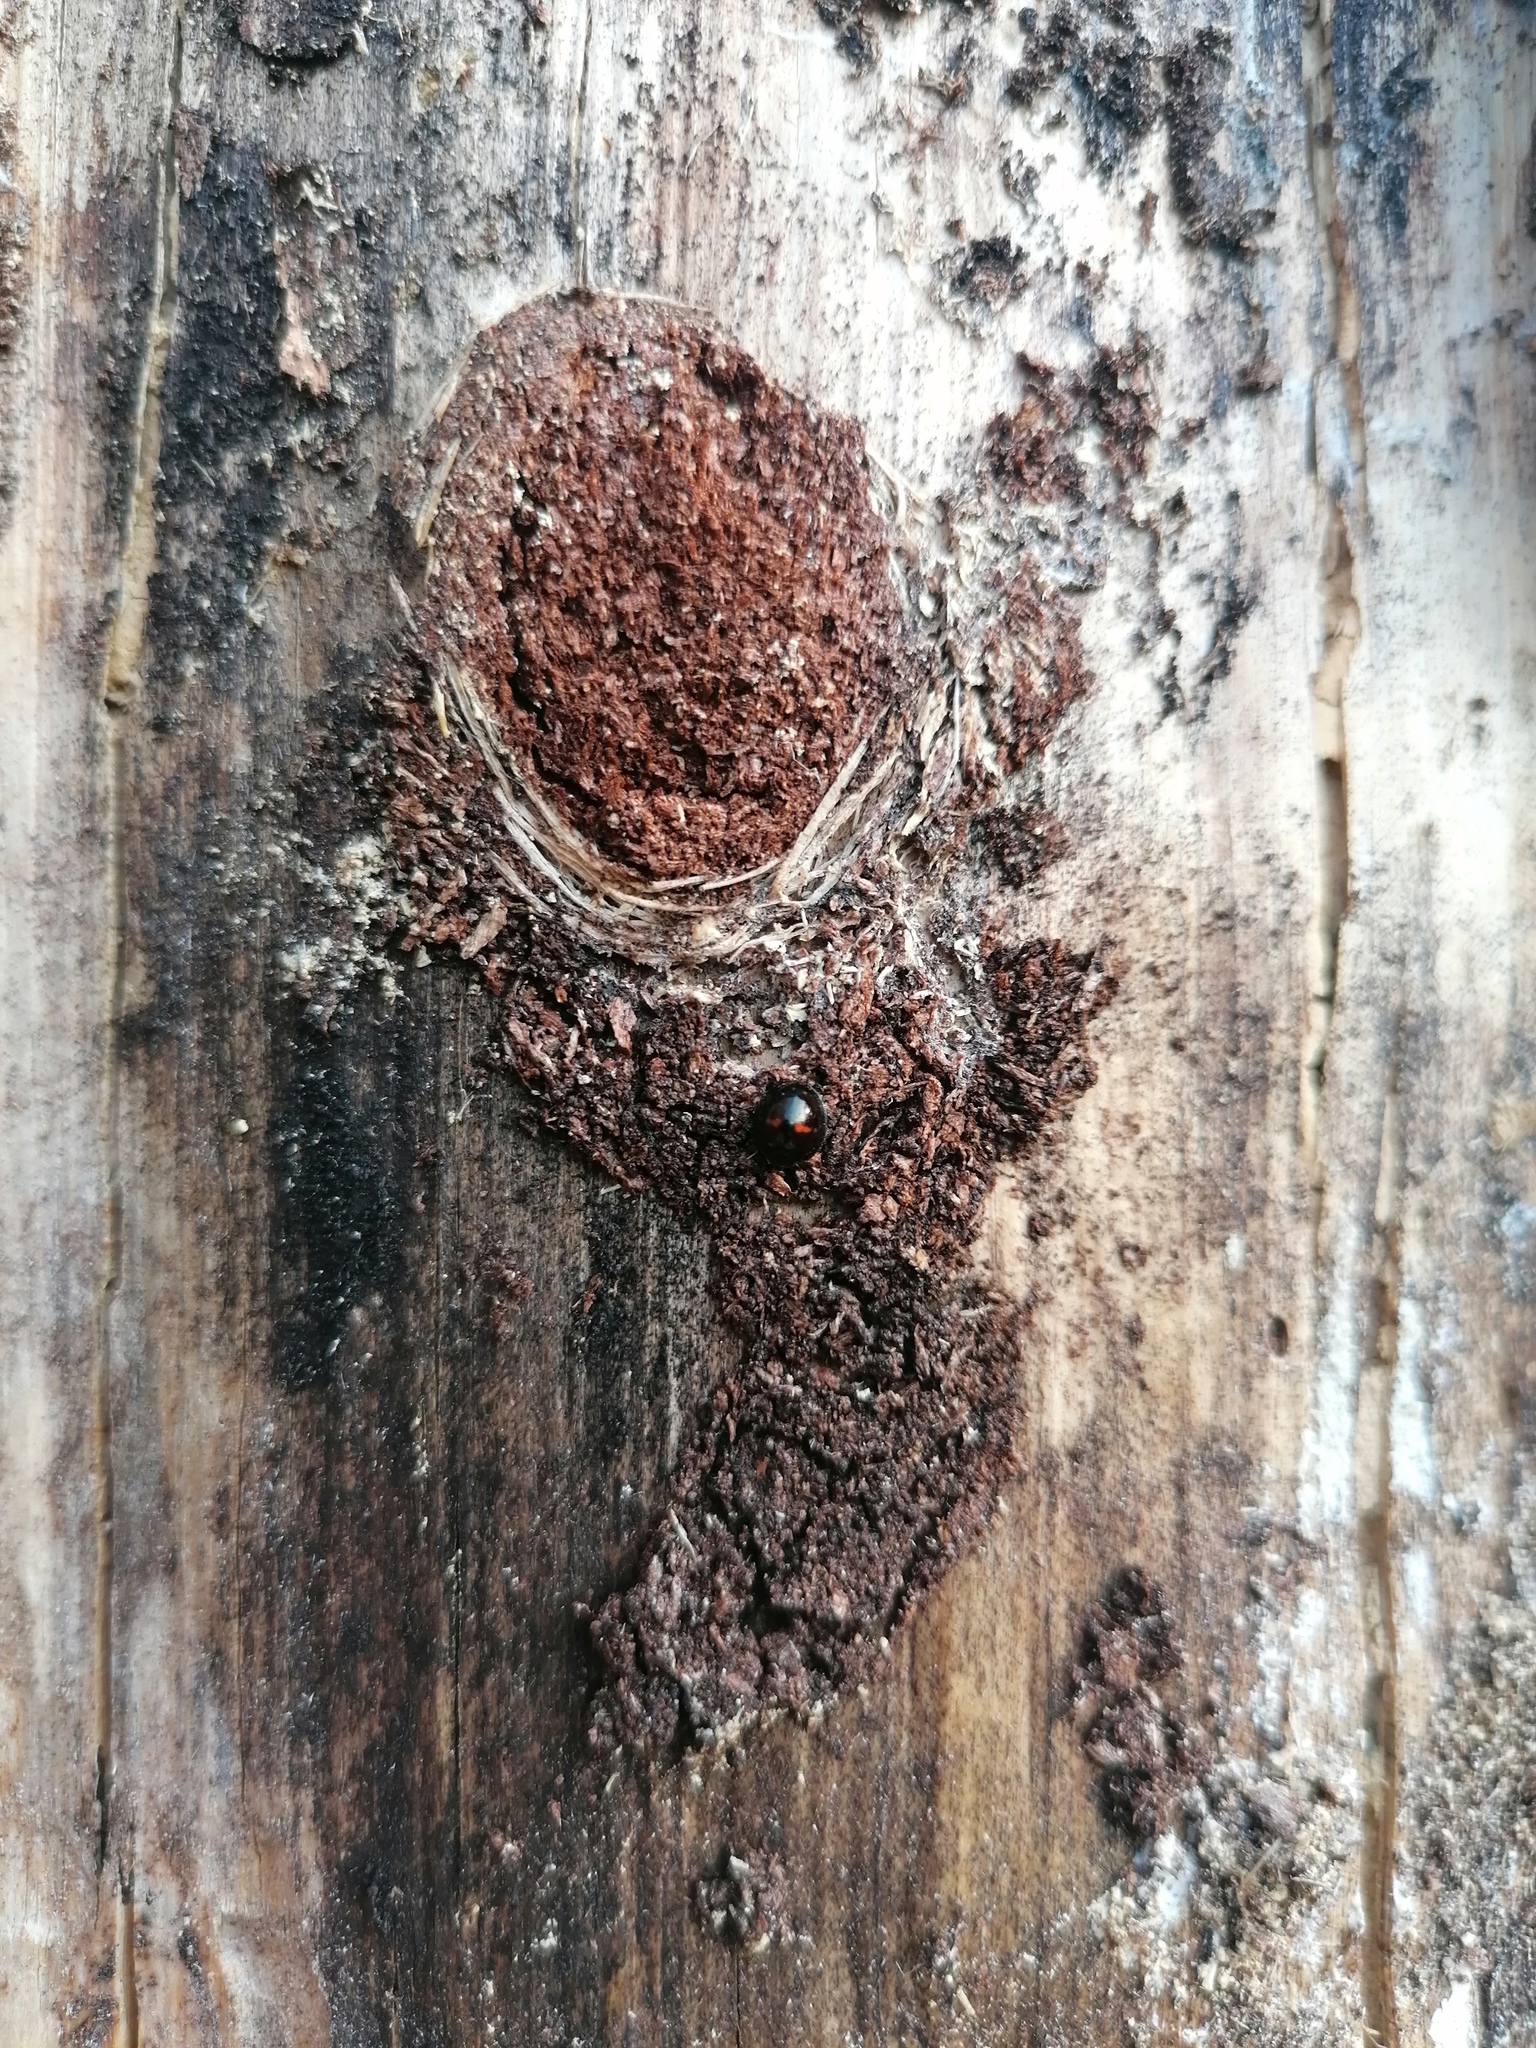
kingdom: Animalia
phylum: Arthropoda
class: Insecta
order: Coleoptera
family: Coccinellidae
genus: Chilocorus
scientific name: Chilocorus bipustulatus
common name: Heather ladybird
